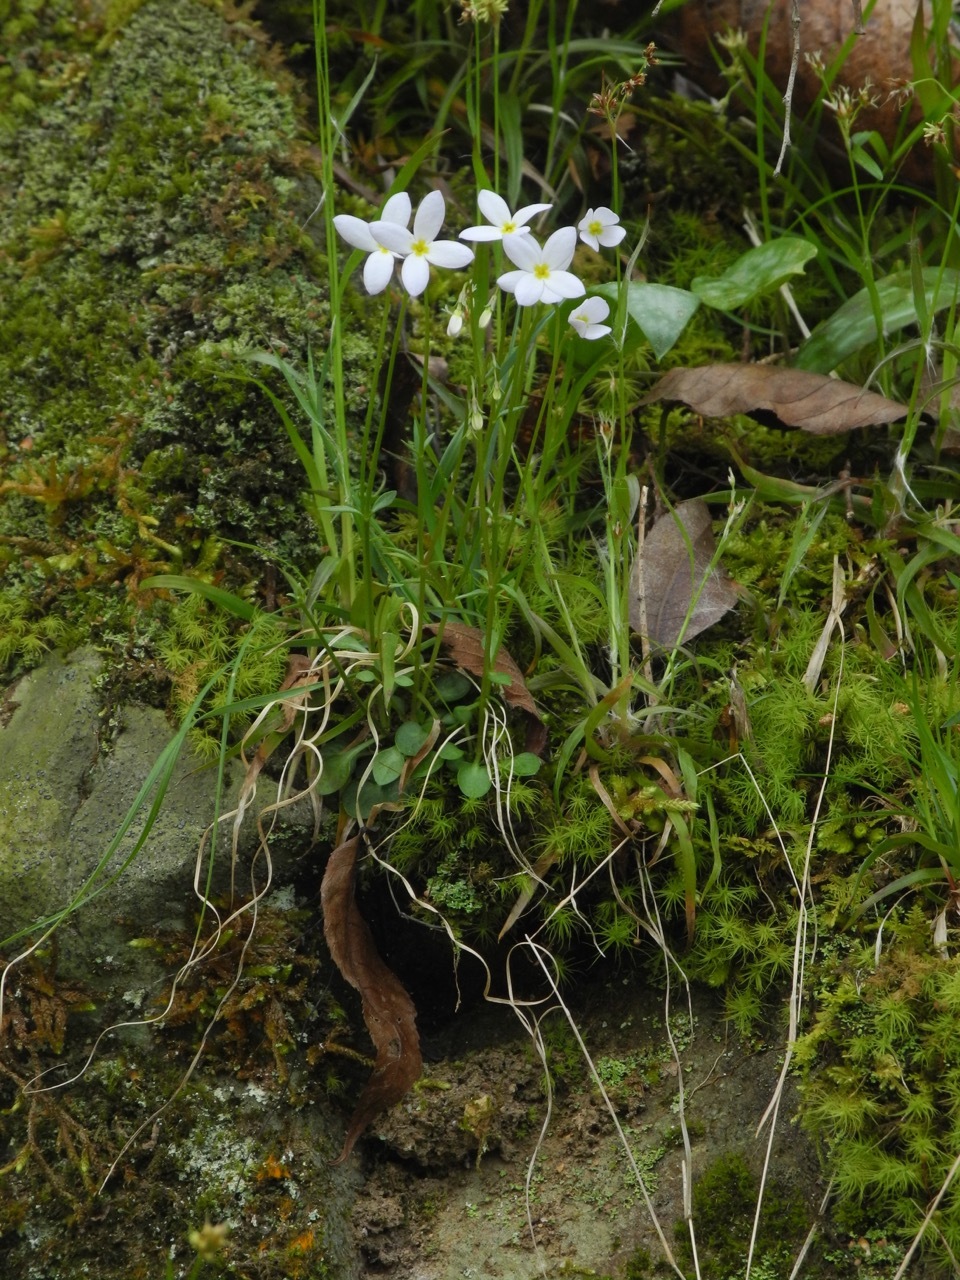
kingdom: Plantae
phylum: Tracheophyta
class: Magnoliopsida
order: Gentianales
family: Rubiaceae
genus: Houstonia
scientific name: Houstonia caerulea
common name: Bluets
